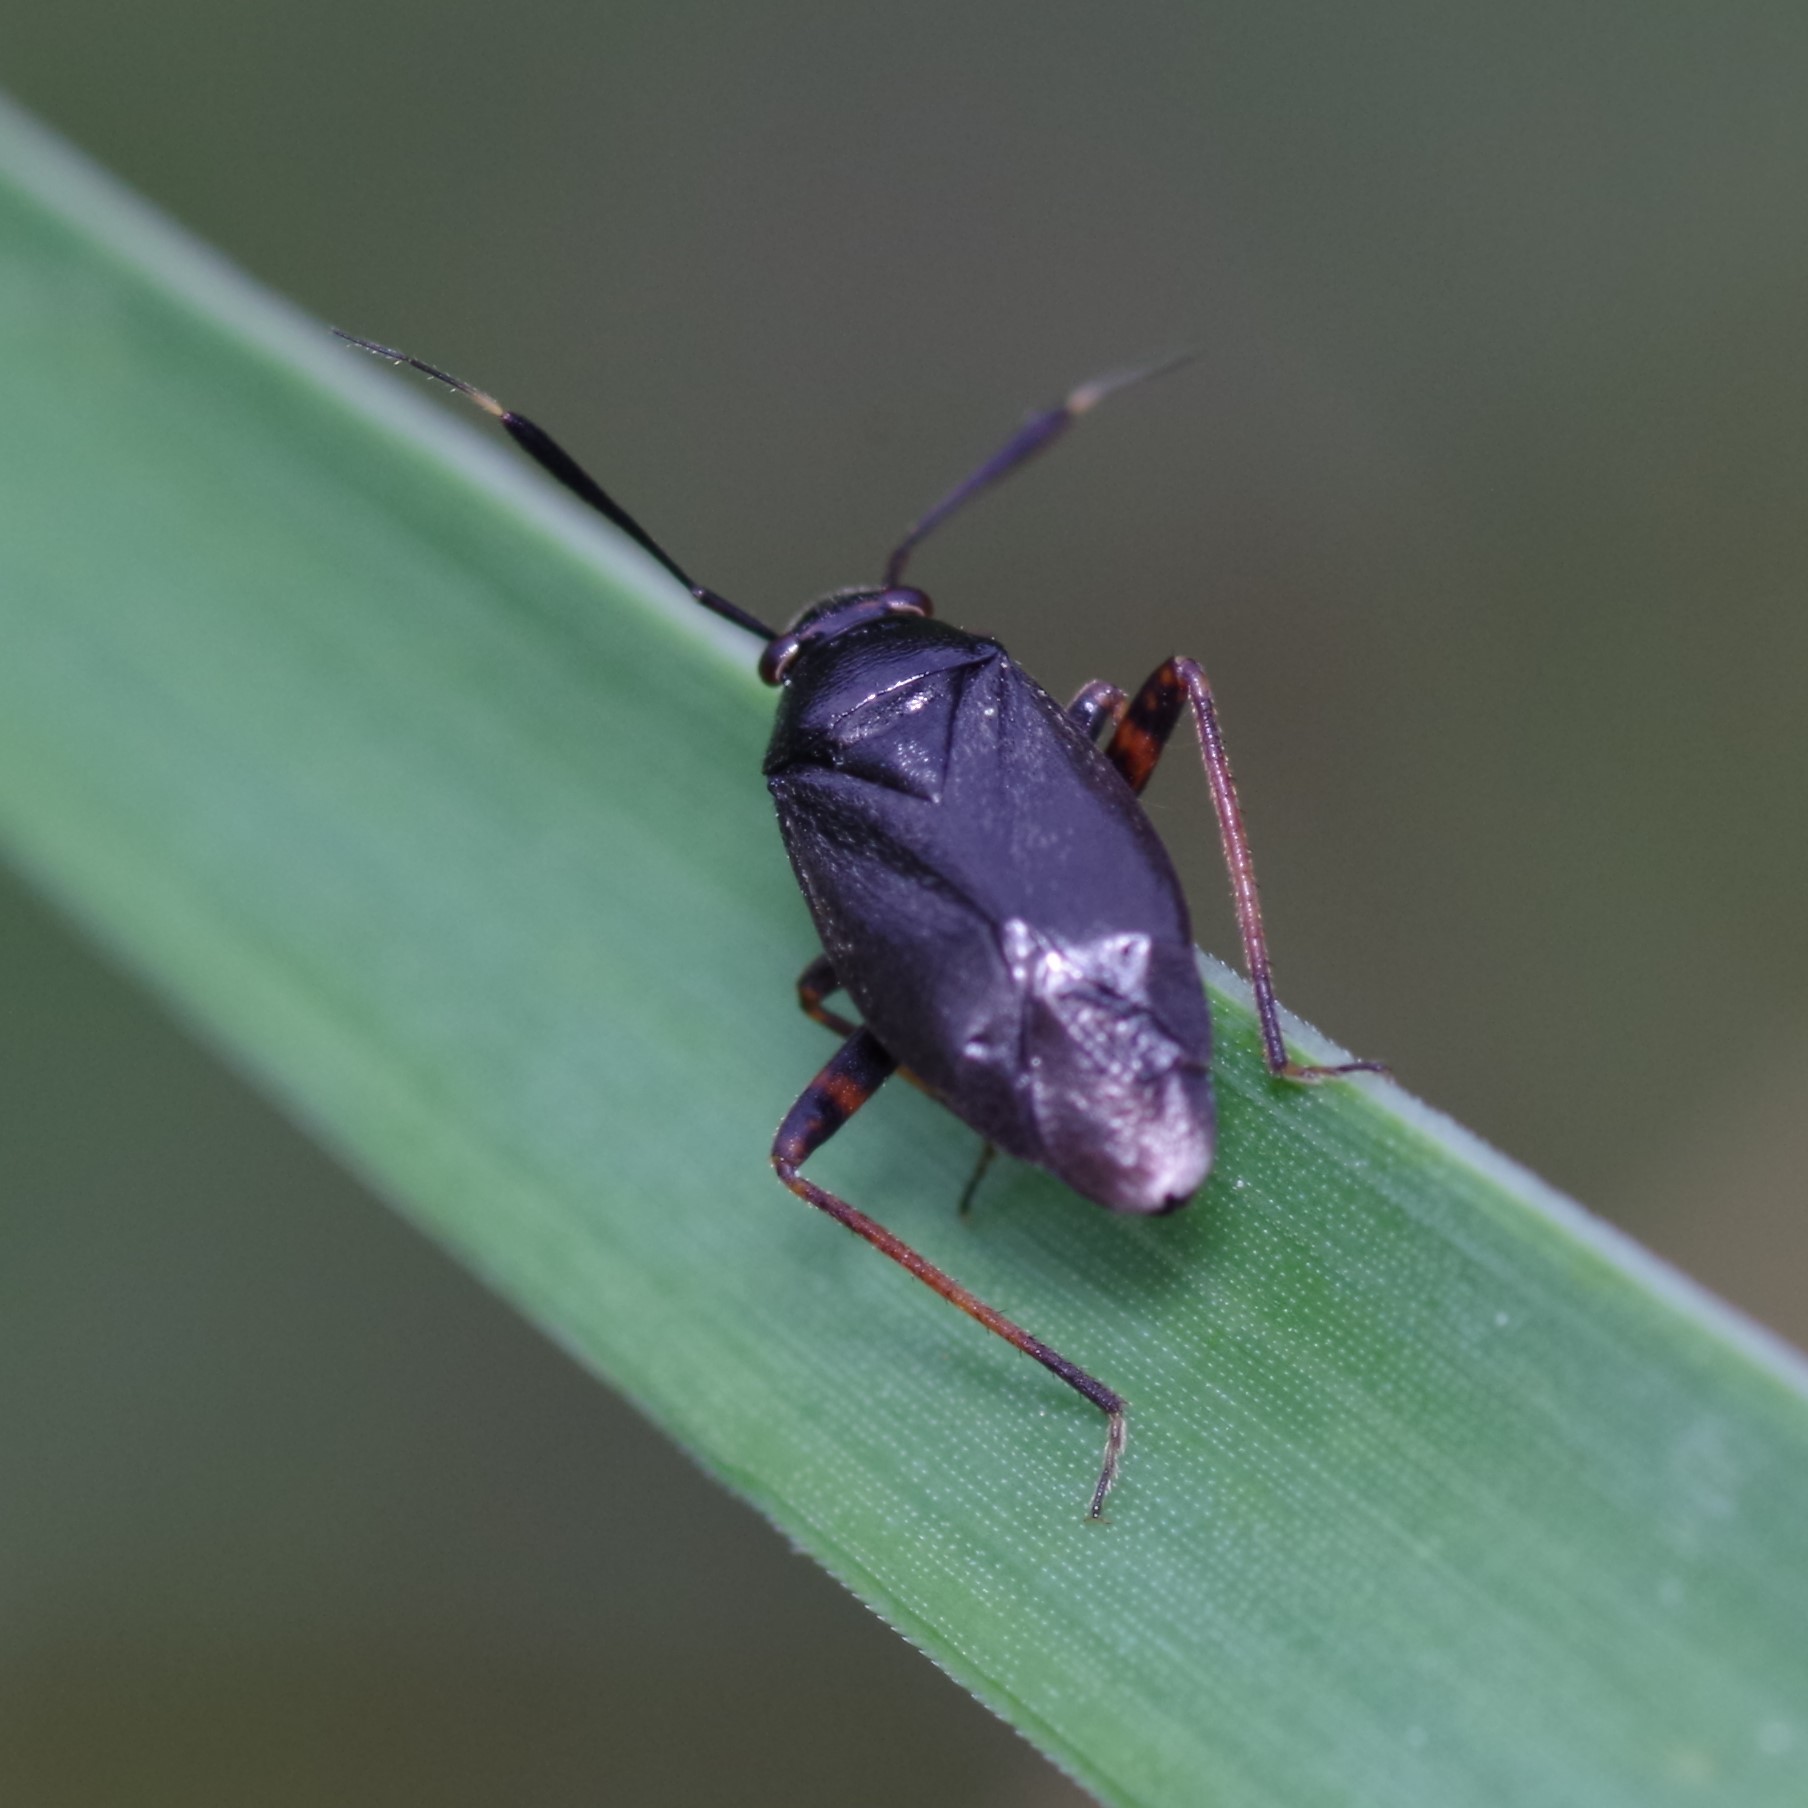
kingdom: Animalia
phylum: Arthropoda
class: Insecta
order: Hemiptera
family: Miridae
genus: Capsus
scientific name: Capsus ater
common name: Black plant bug
